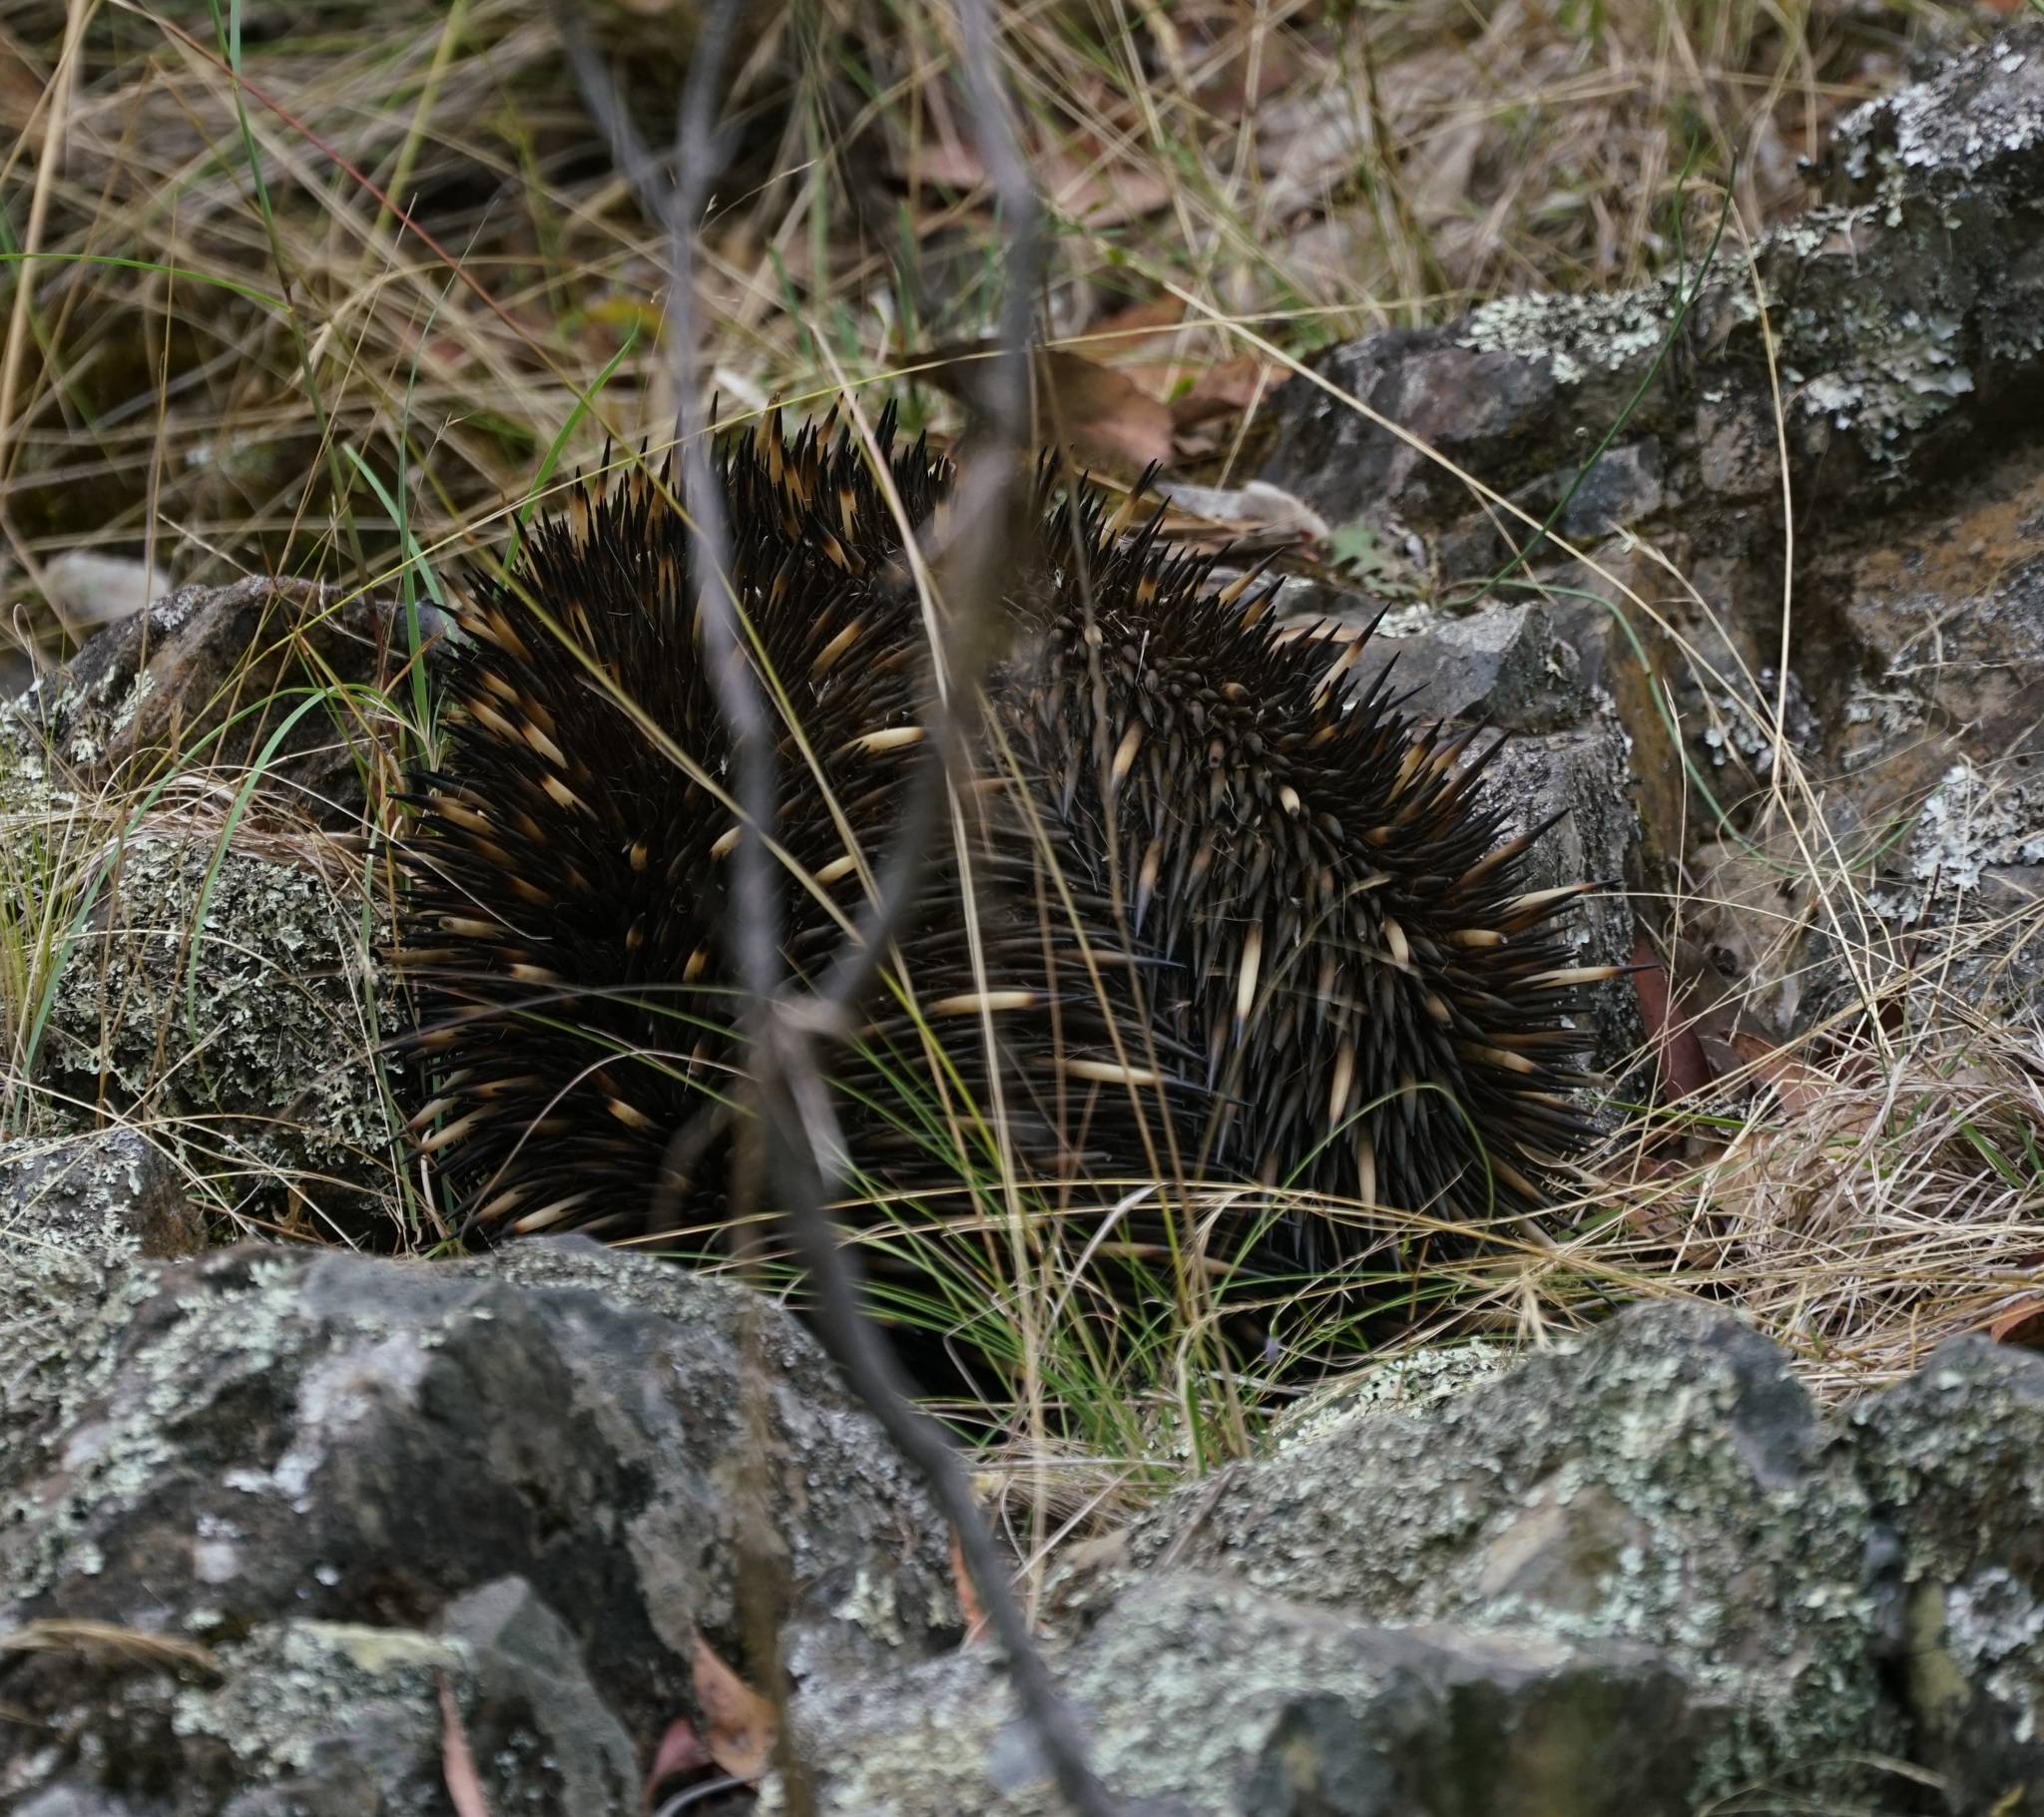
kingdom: Animalia
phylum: Chordata
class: Mammalia
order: Monotremata
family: Tachyglossidae
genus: Tachyglossus
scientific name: Tachyglossus aculeatus
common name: Short-beaked echidna
